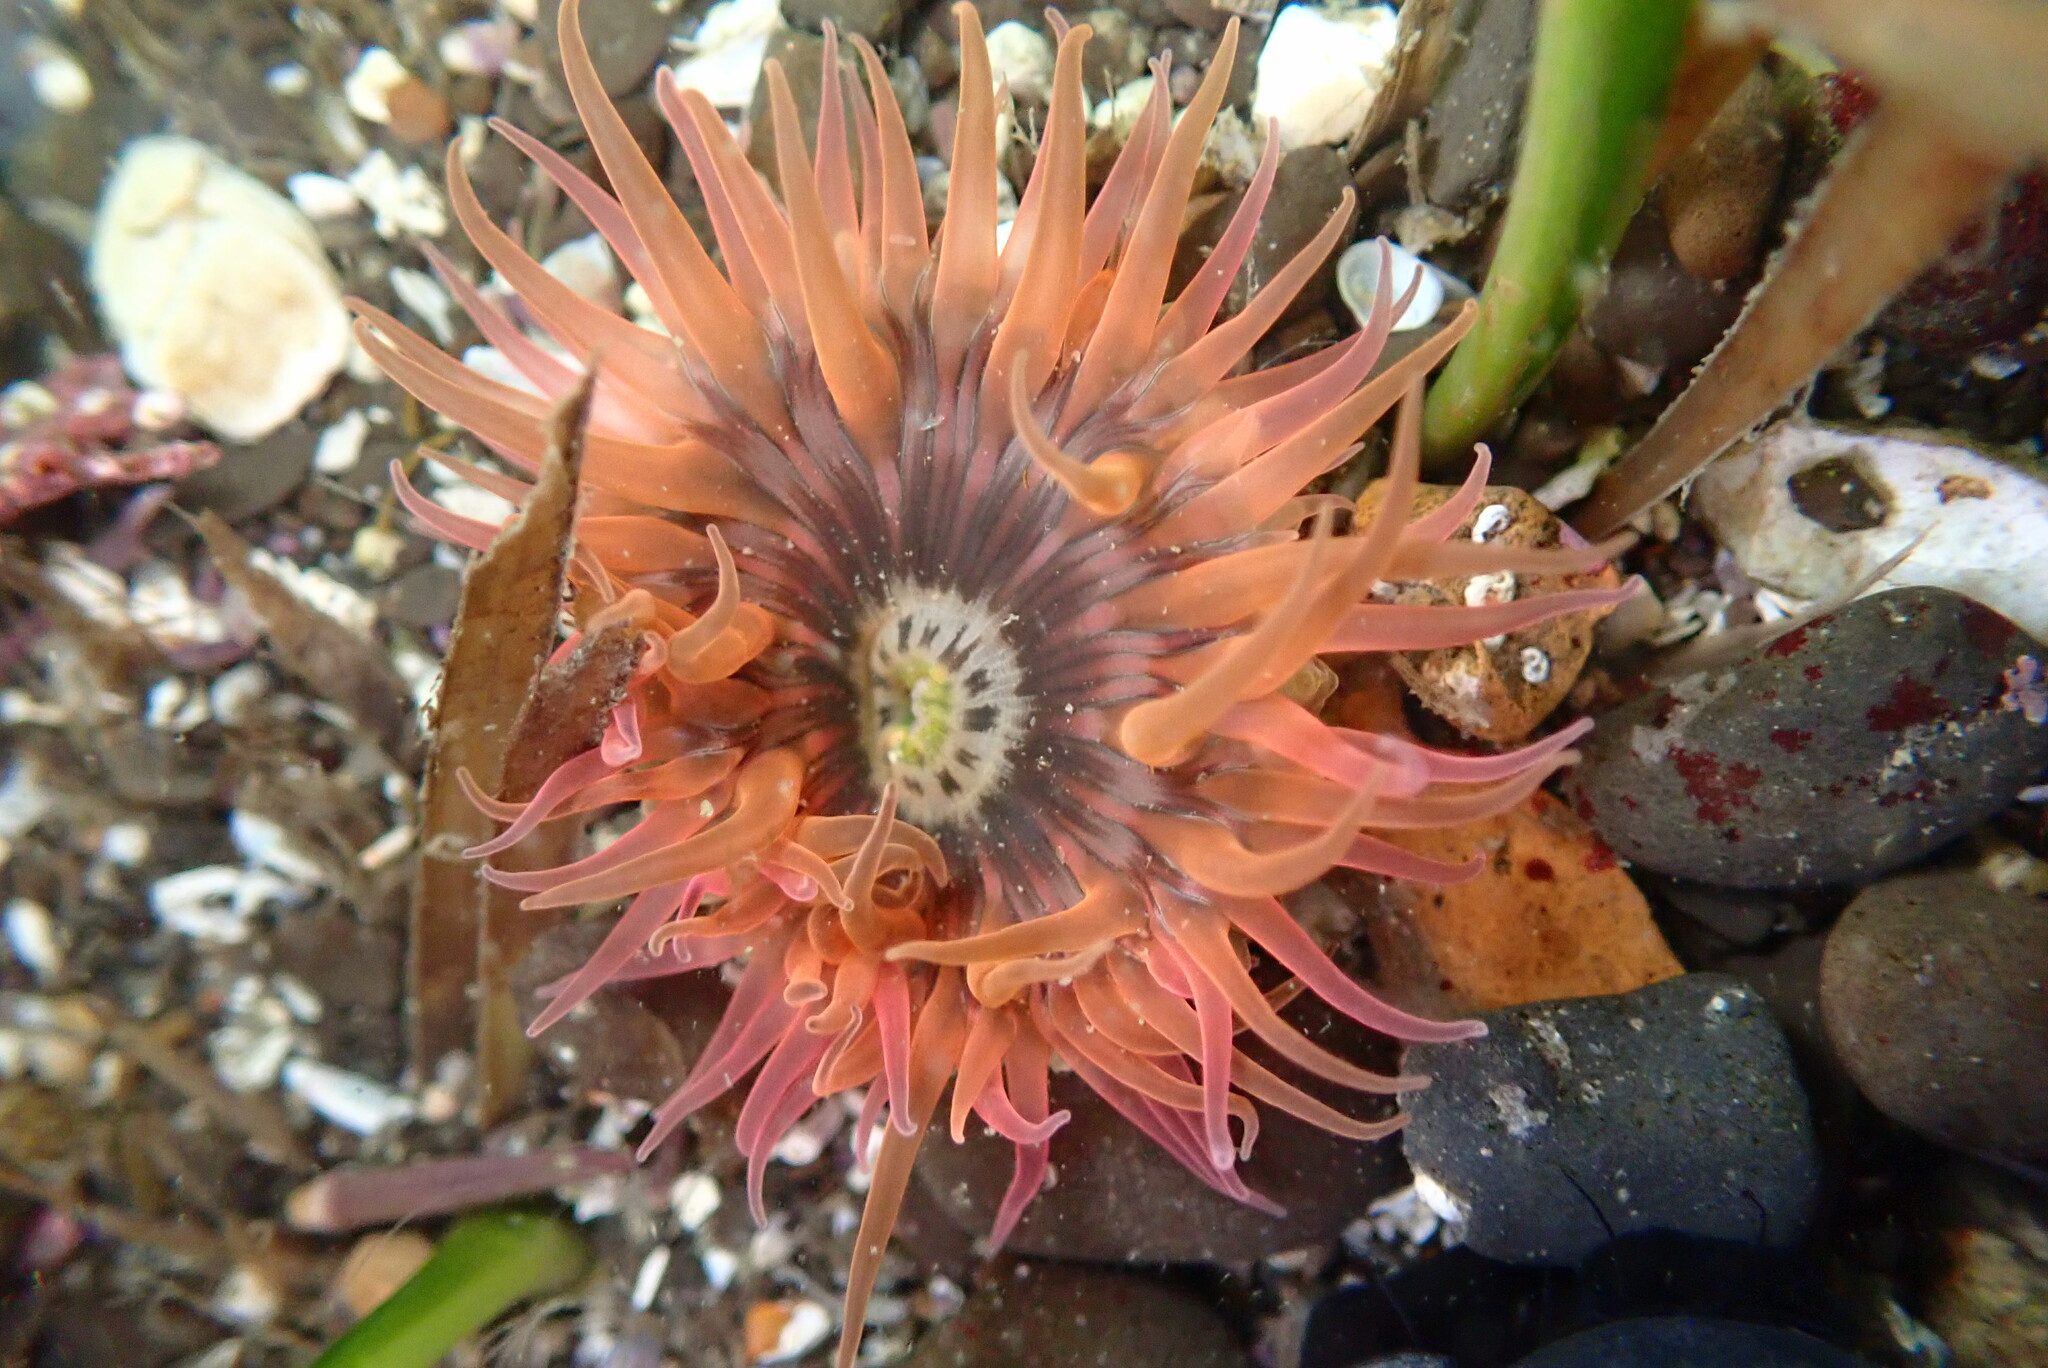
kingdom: Animalia
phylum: Cnidaria
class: Anthozoa
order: Actiniaria
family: Actiniidae
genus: Anthopleura
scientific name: Anthopleura artemisia
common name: Buried sea anemone
